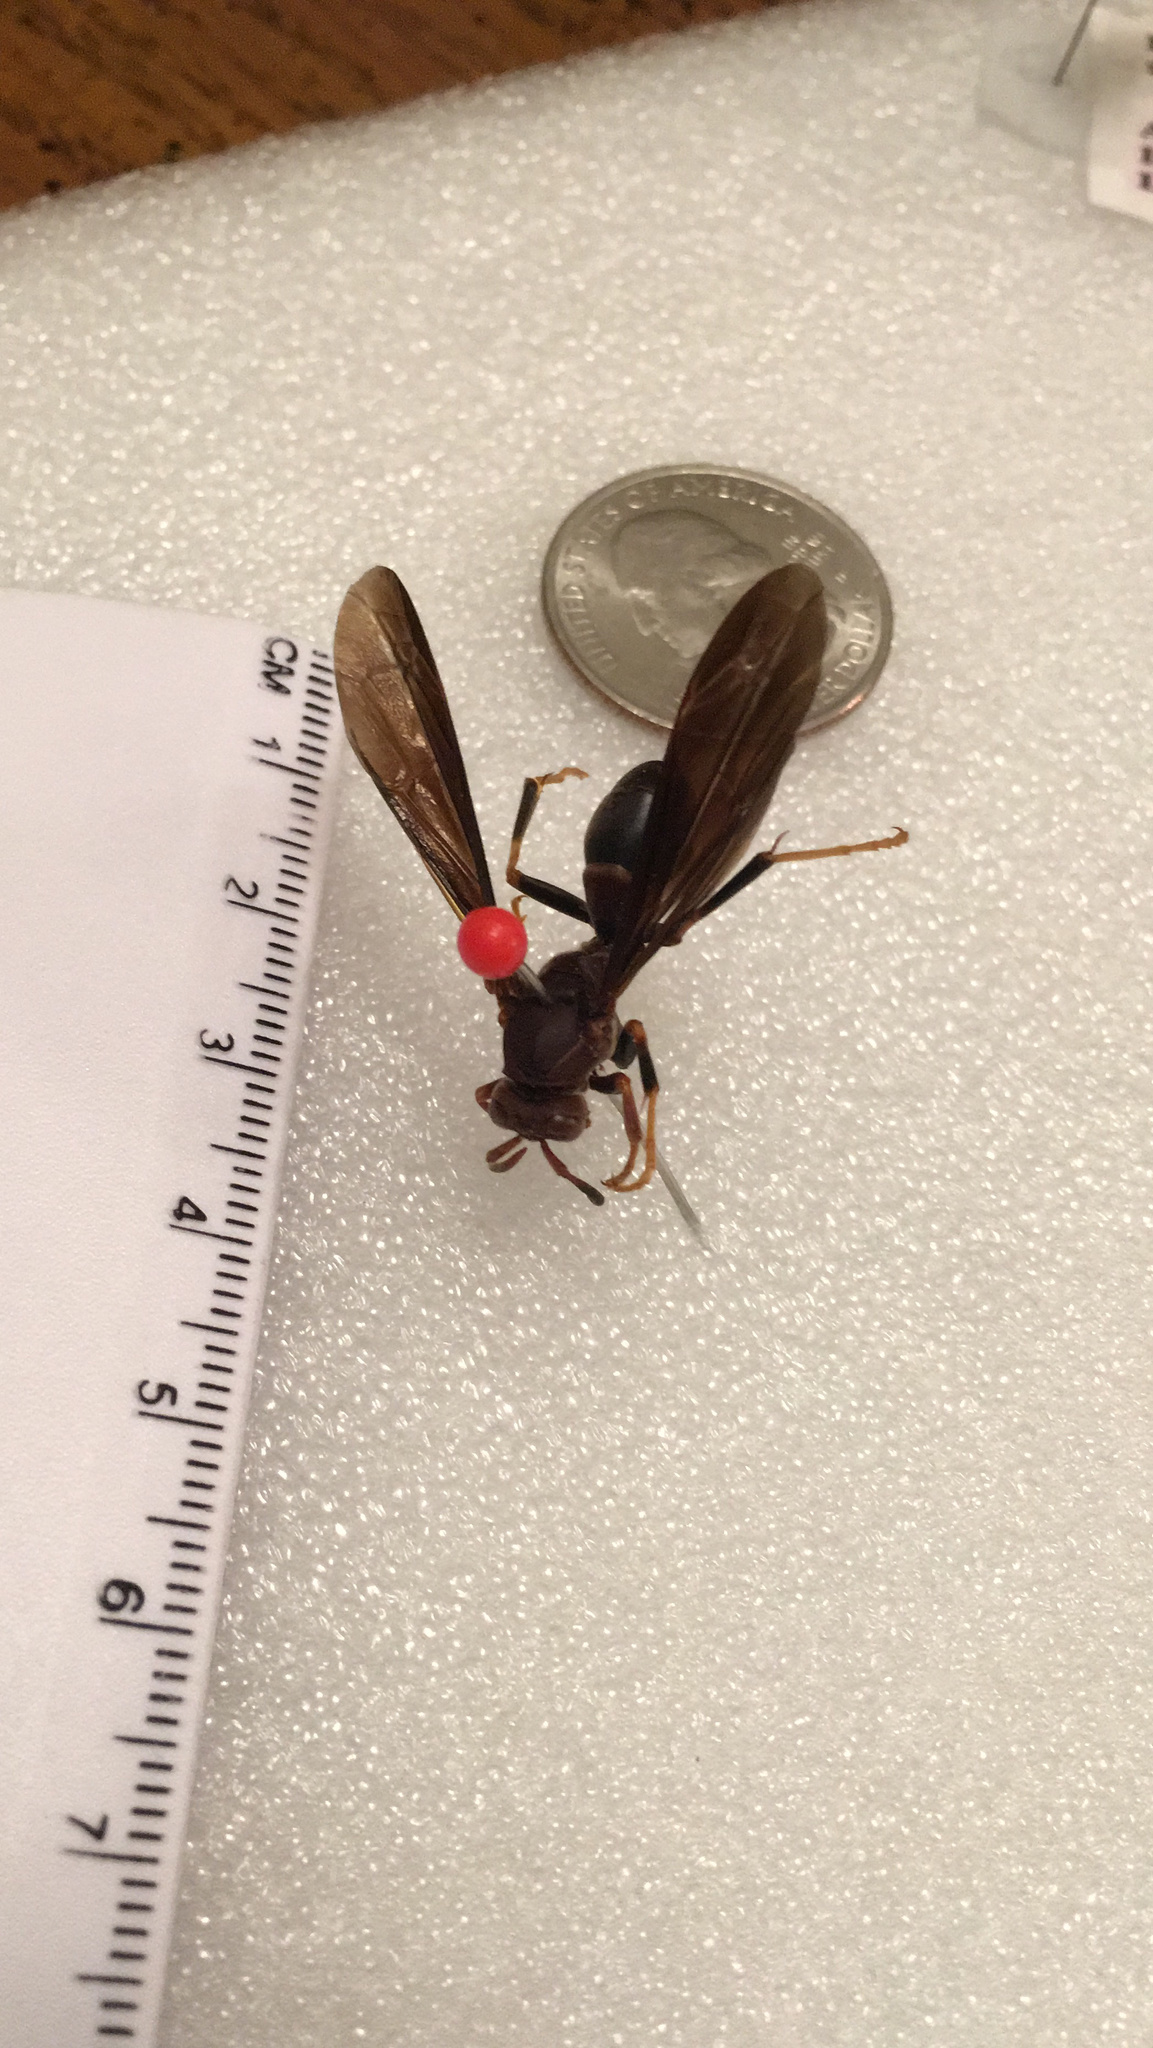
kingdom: Animalia
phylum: Arthropoda
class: Insecta
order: Hymenoptera
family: Eumenidae
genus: Polistes
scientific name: Polistes annularis
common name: Ringed paper wasp
